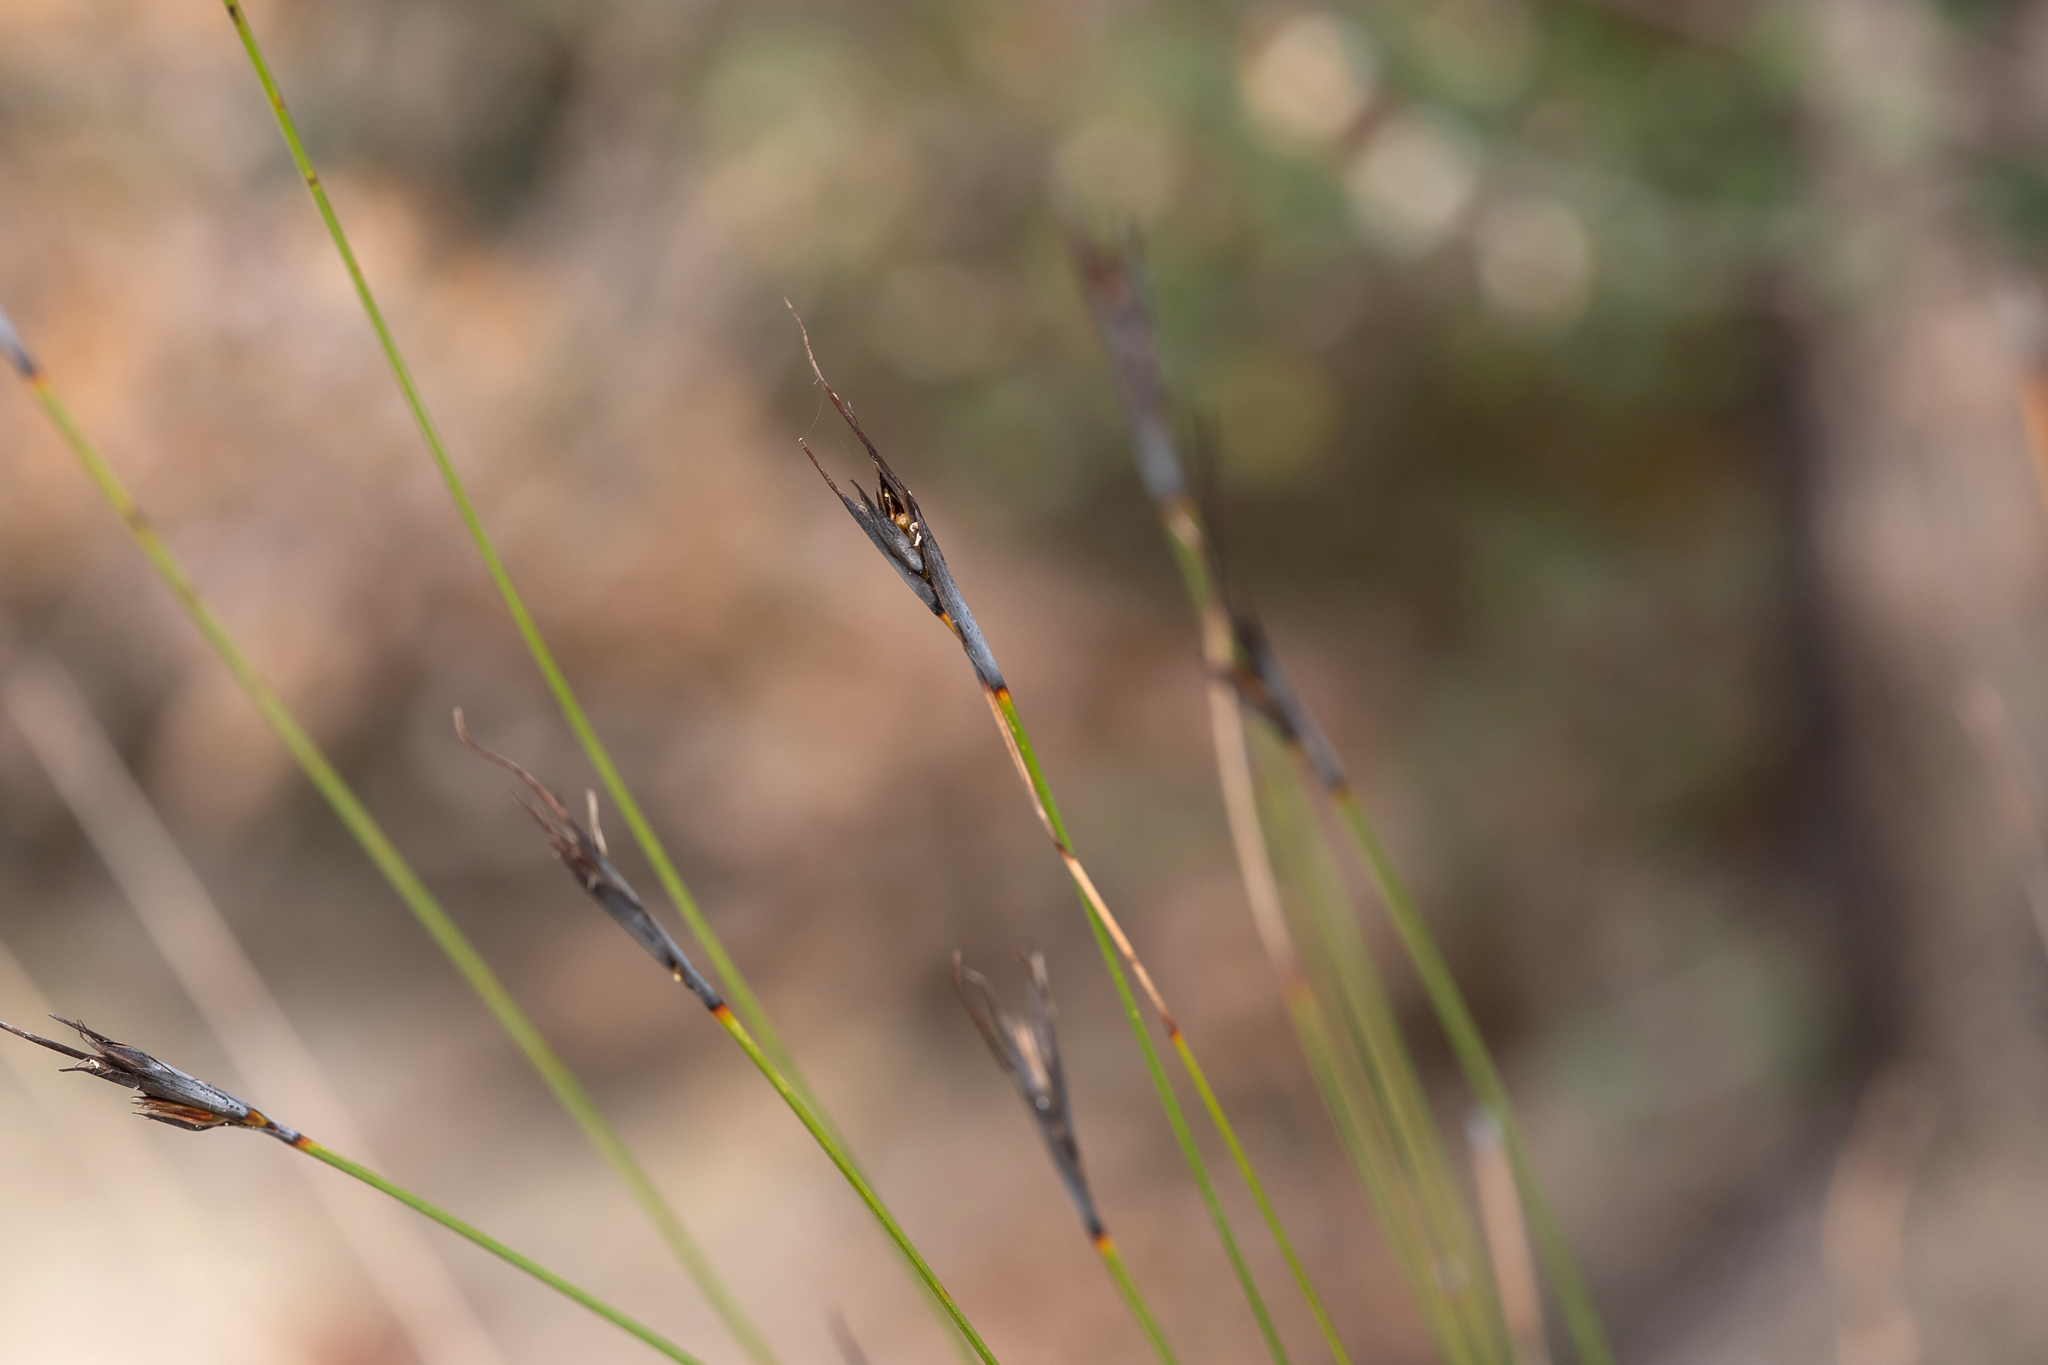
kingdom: Plantae
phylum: Tracheophyta
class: Liliopsida
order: Poales
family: Cyperaceae
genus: Lepidosperma
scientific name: Lepidosperma carphoides
